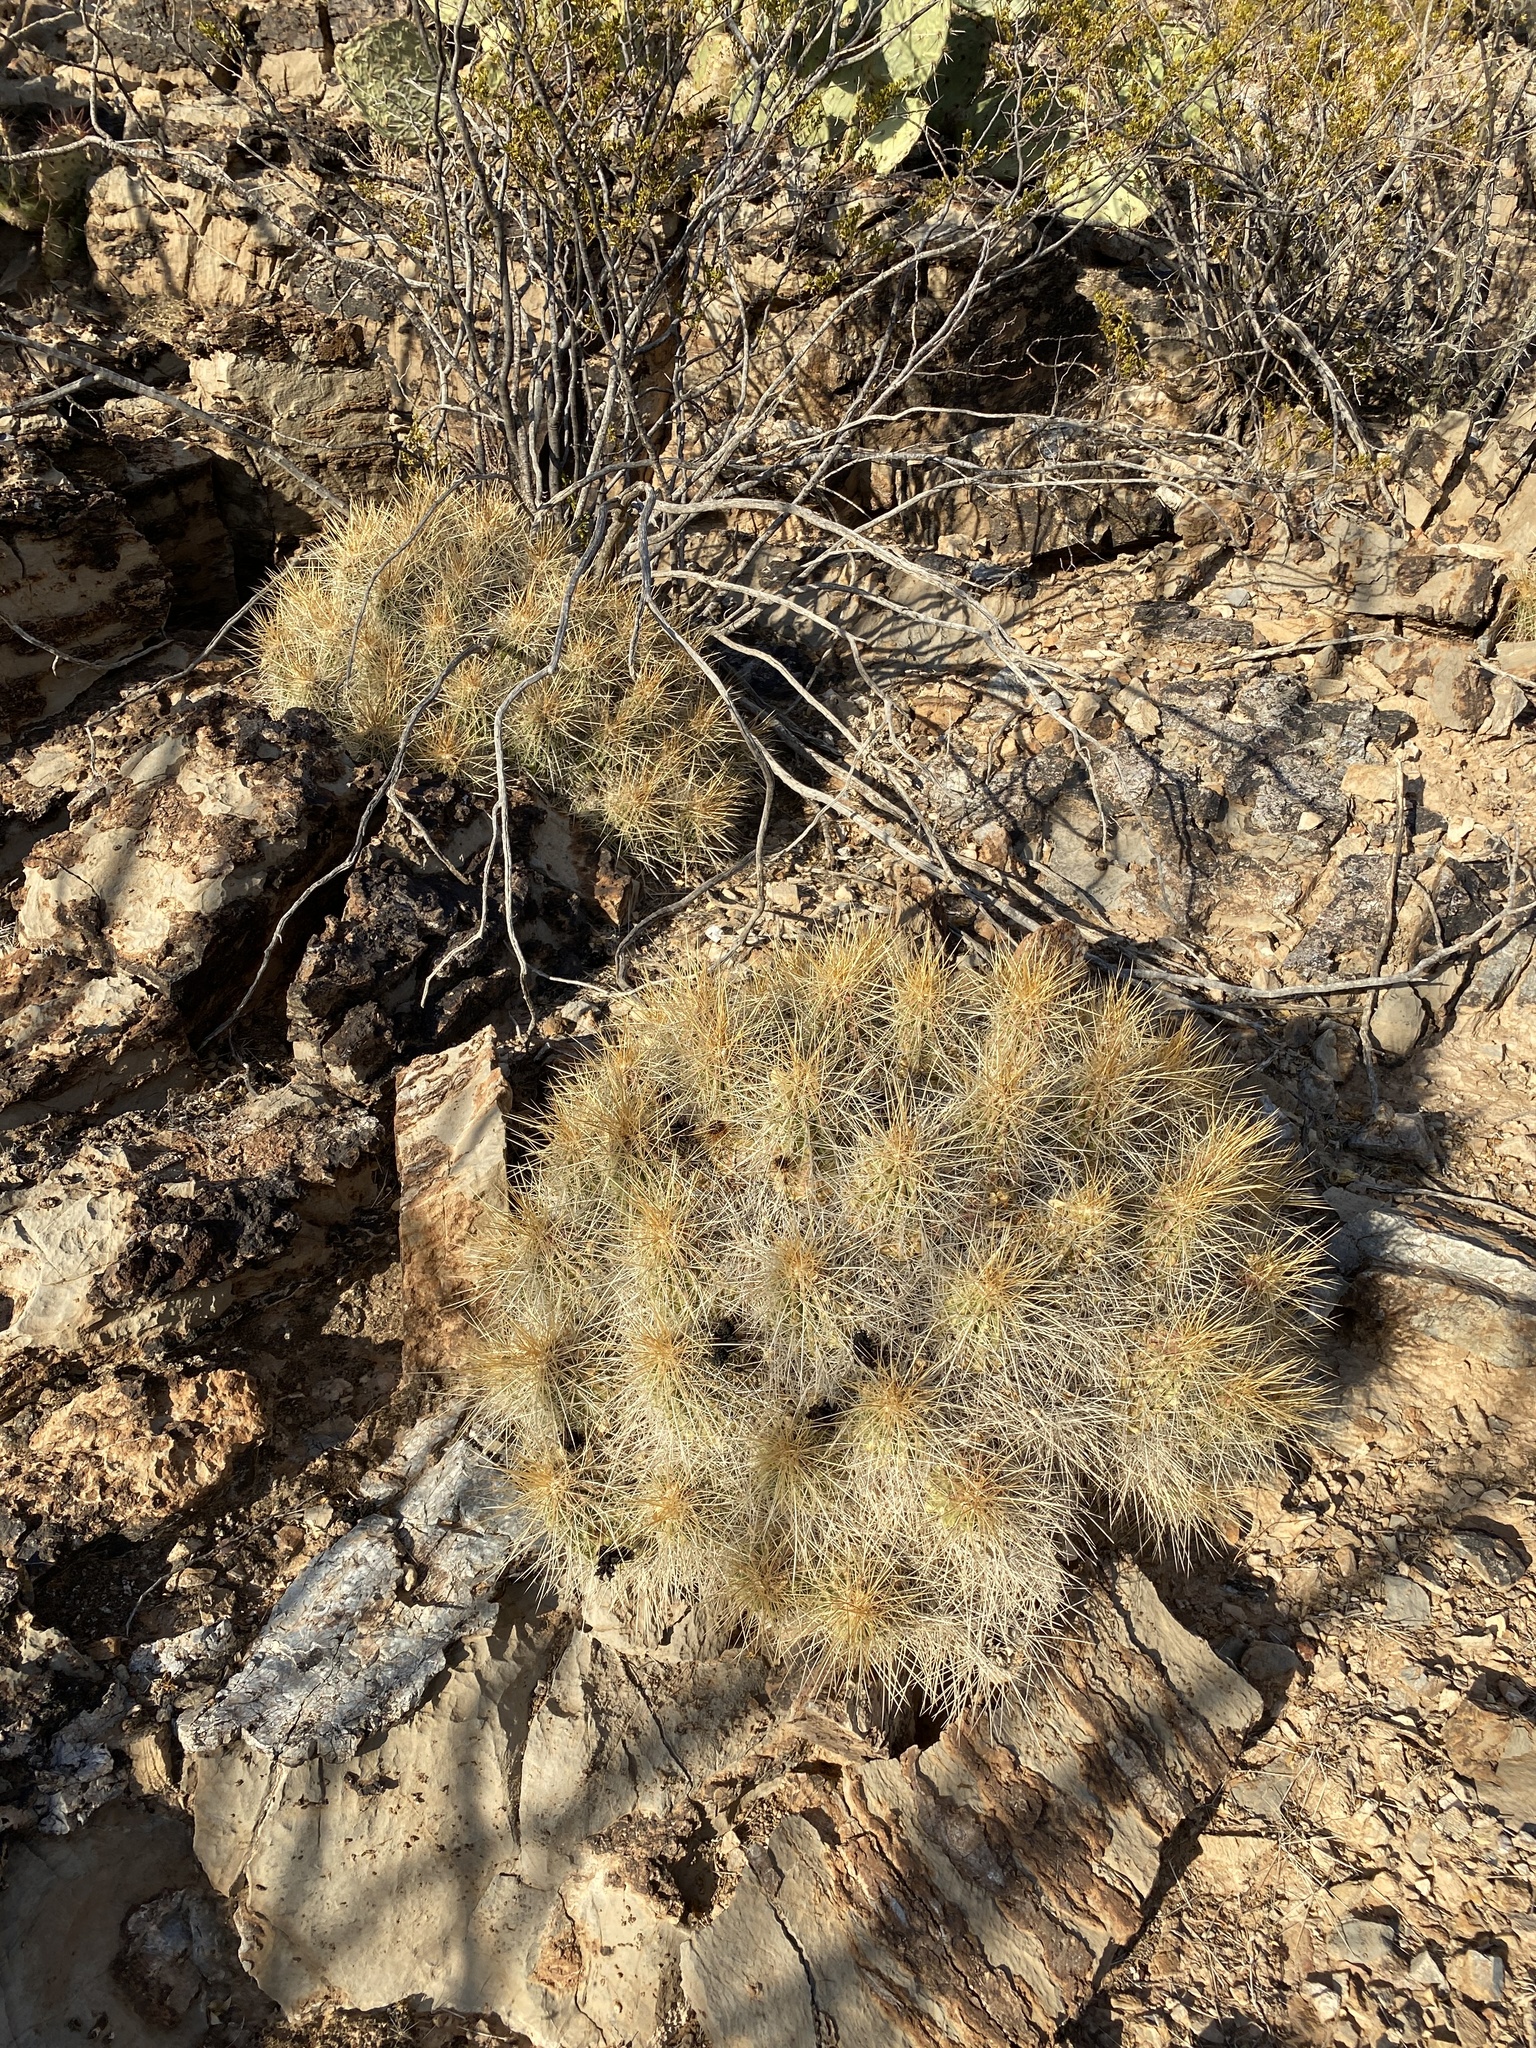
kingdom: Plantae
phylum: Tracheophyta
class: Magnoliopsida
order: Caryophyllales
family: Cactaceae
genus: Echinocereus
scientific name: Echinocereus stramineus
